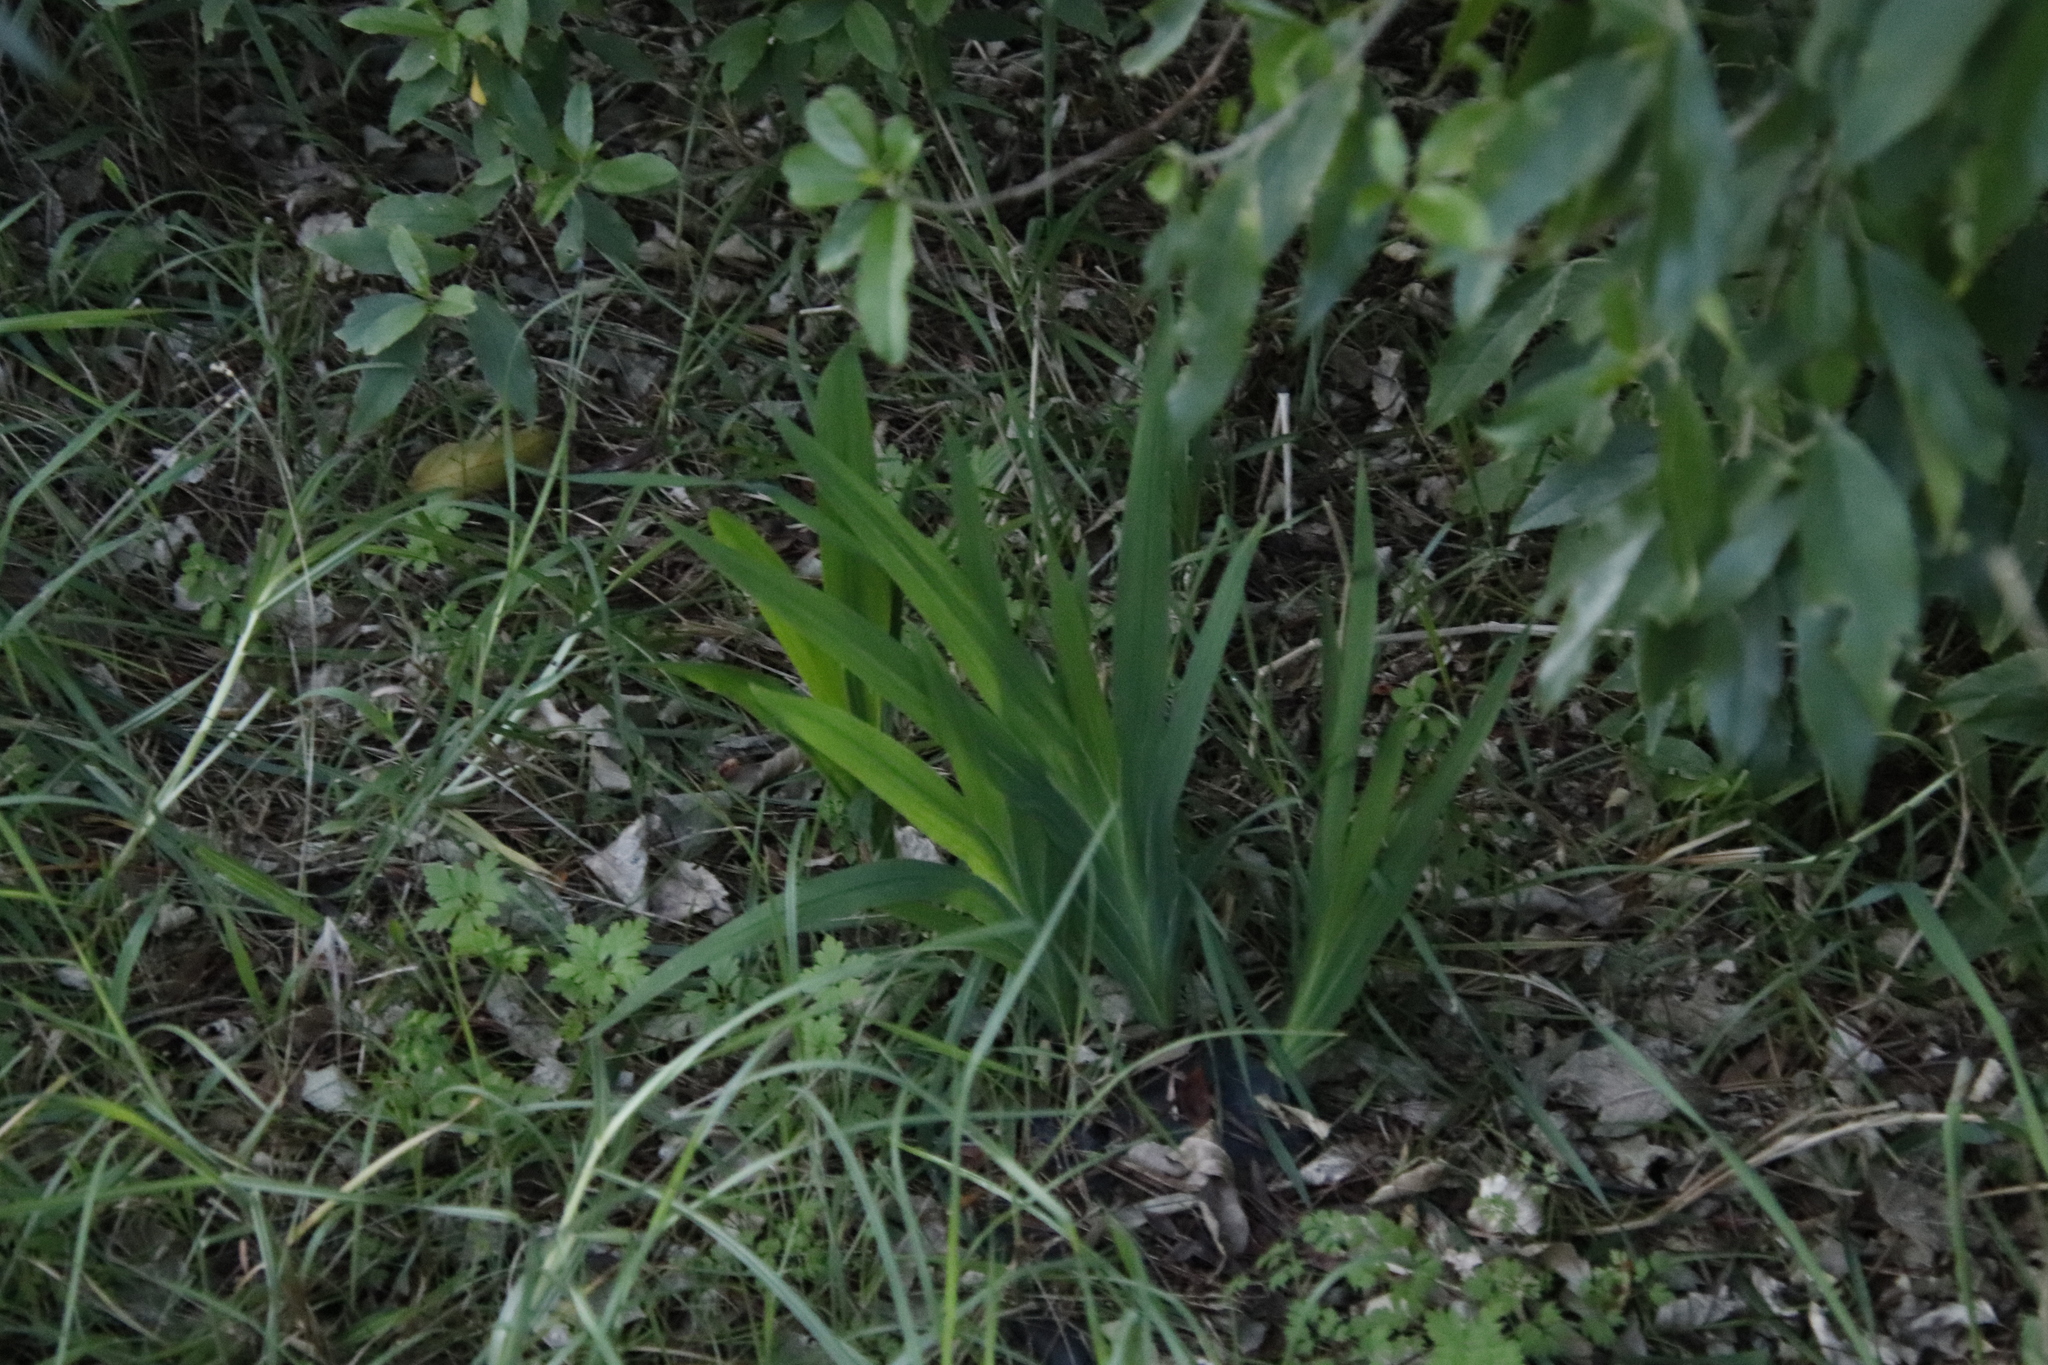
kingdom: Plantae
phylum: Tracheophyta
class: Liliopsida
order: Asparagales
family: Iridaceae
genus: Chasmanthe
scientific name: Chasmanthe aethiopica
